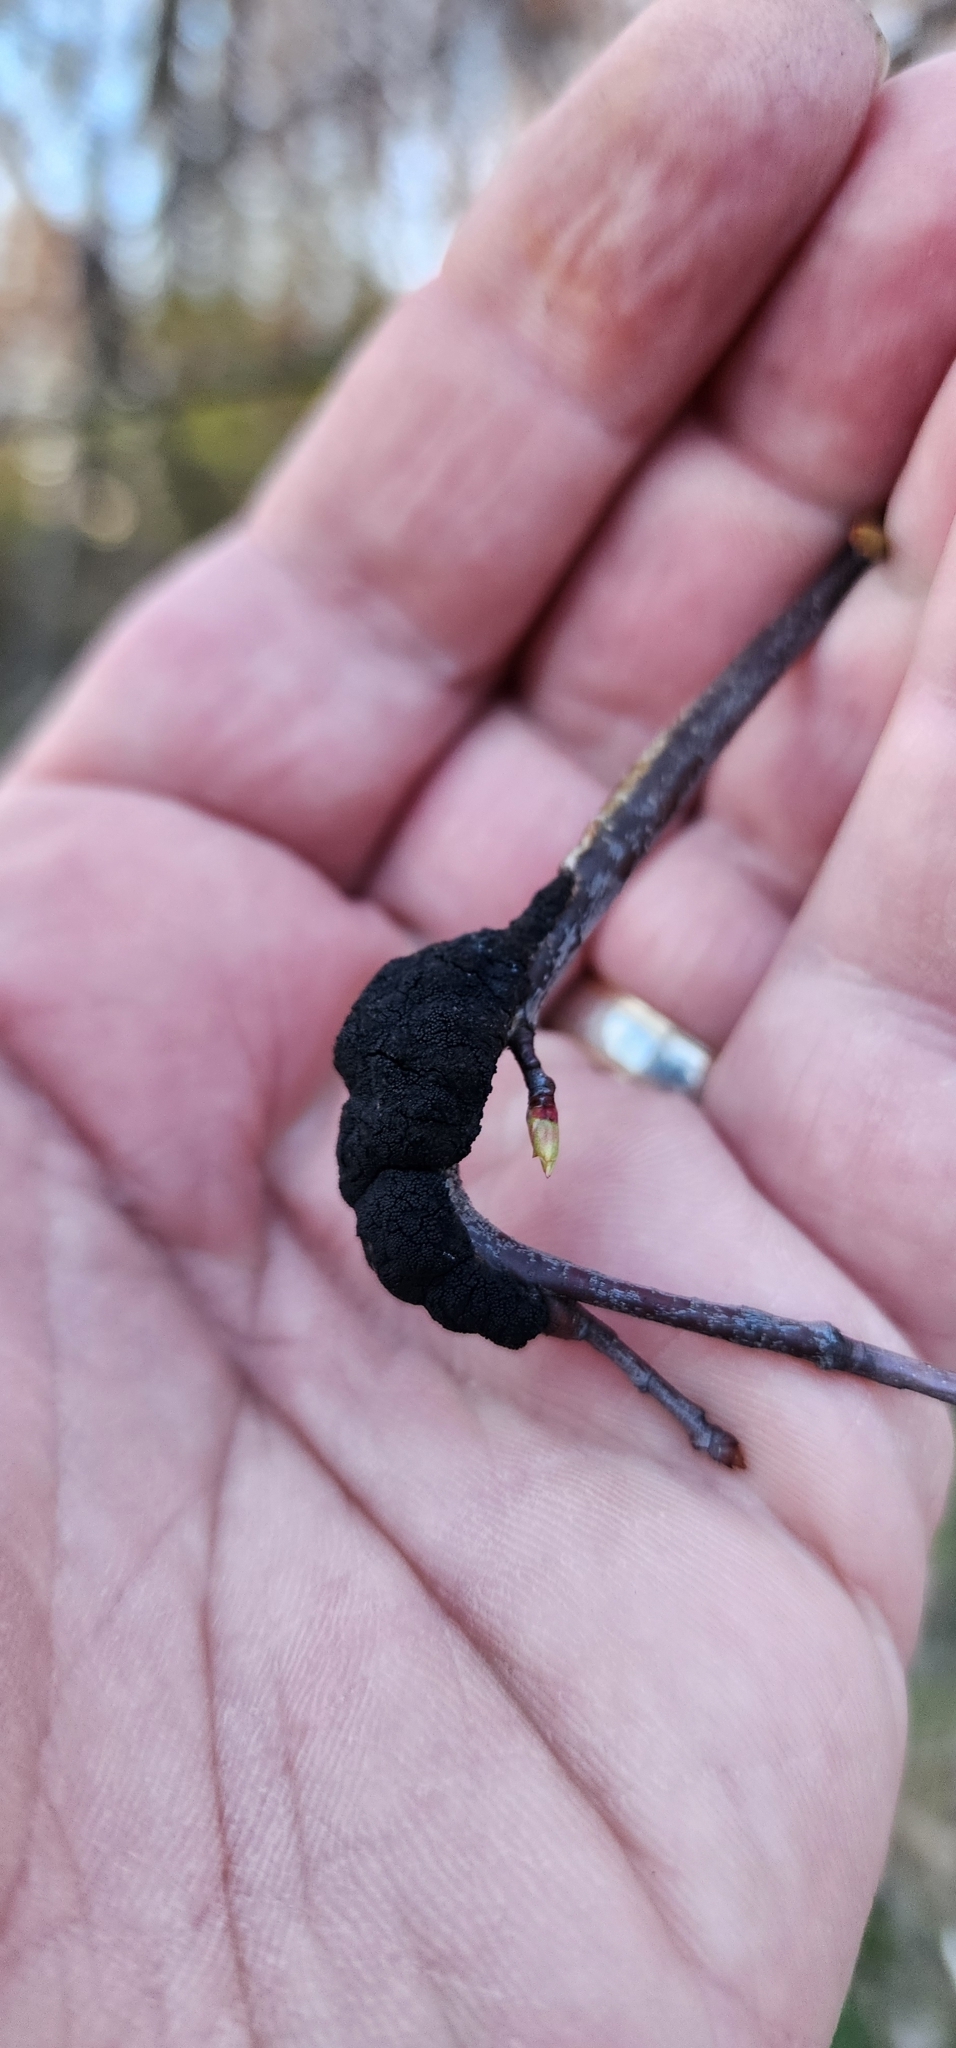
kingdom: Fungi
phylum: Ascomycota
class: Dothideomycetes
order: Venturiales
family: Venturiaceae
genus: Apiosporina
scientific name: Apiosporina morbosa
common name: Black knot
